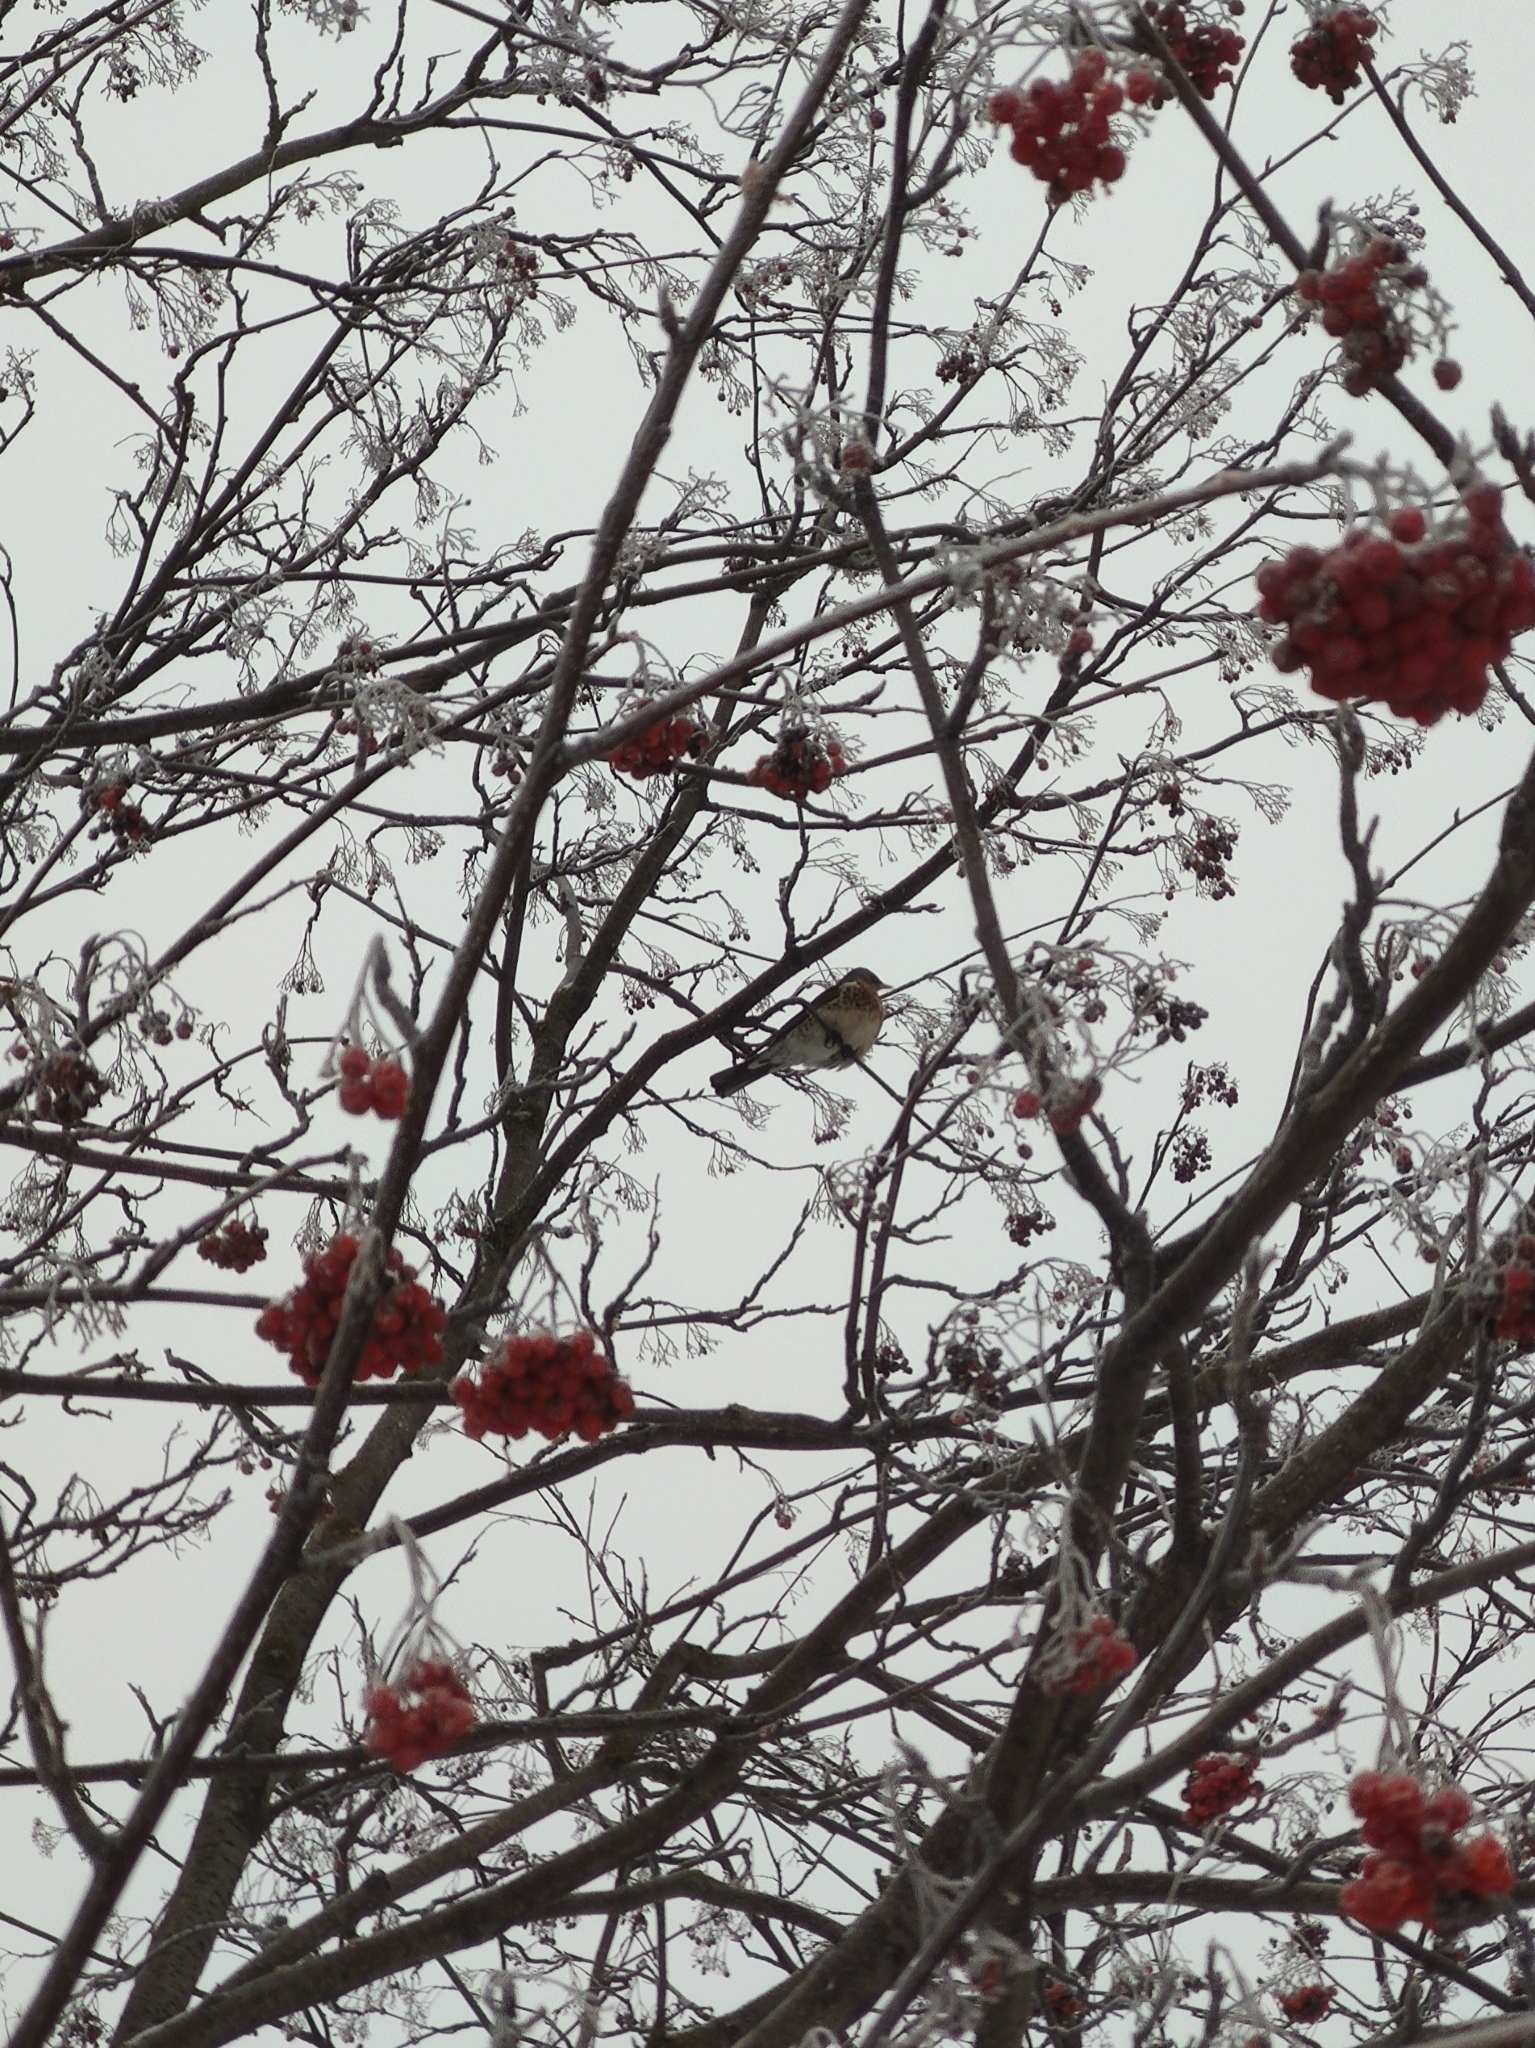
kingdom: Animalia
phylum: Chordata
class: Aves
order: Passeriformes
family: Turdidae
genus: Turdus
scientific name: Turdus pilaris
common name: Fieldfare
